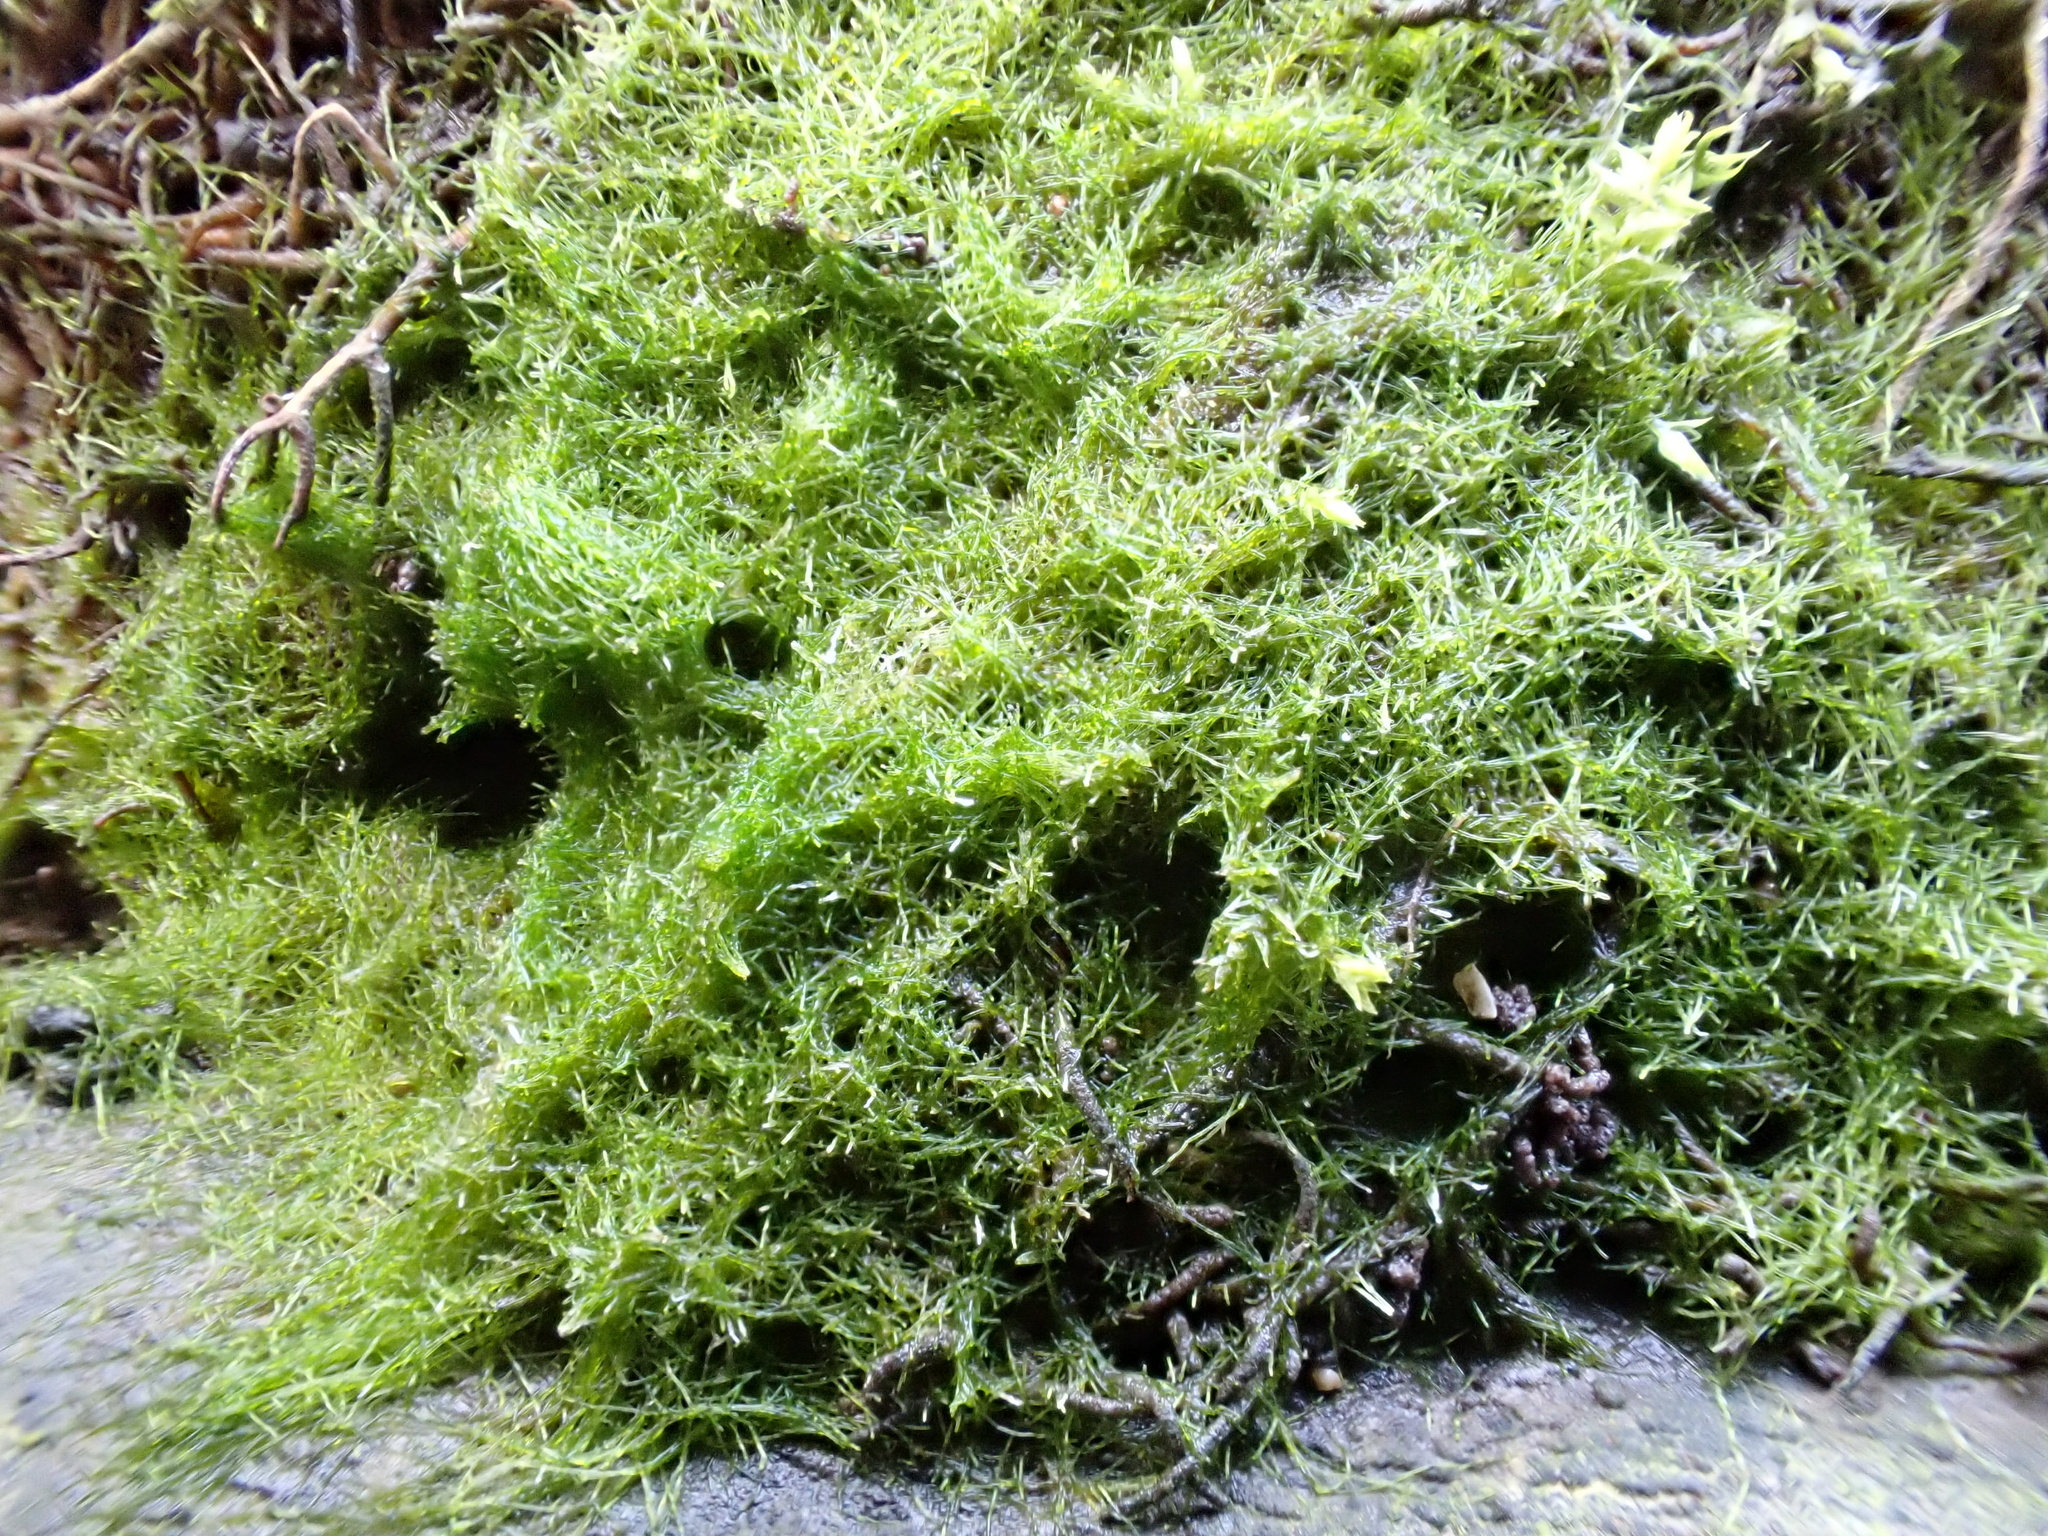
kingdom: Chromista
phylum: Ochrophyta
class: Xanthophyceae
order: Vaucheriales
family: Vaucheriaceae
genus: Vaucheria
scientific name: Vaucheria
